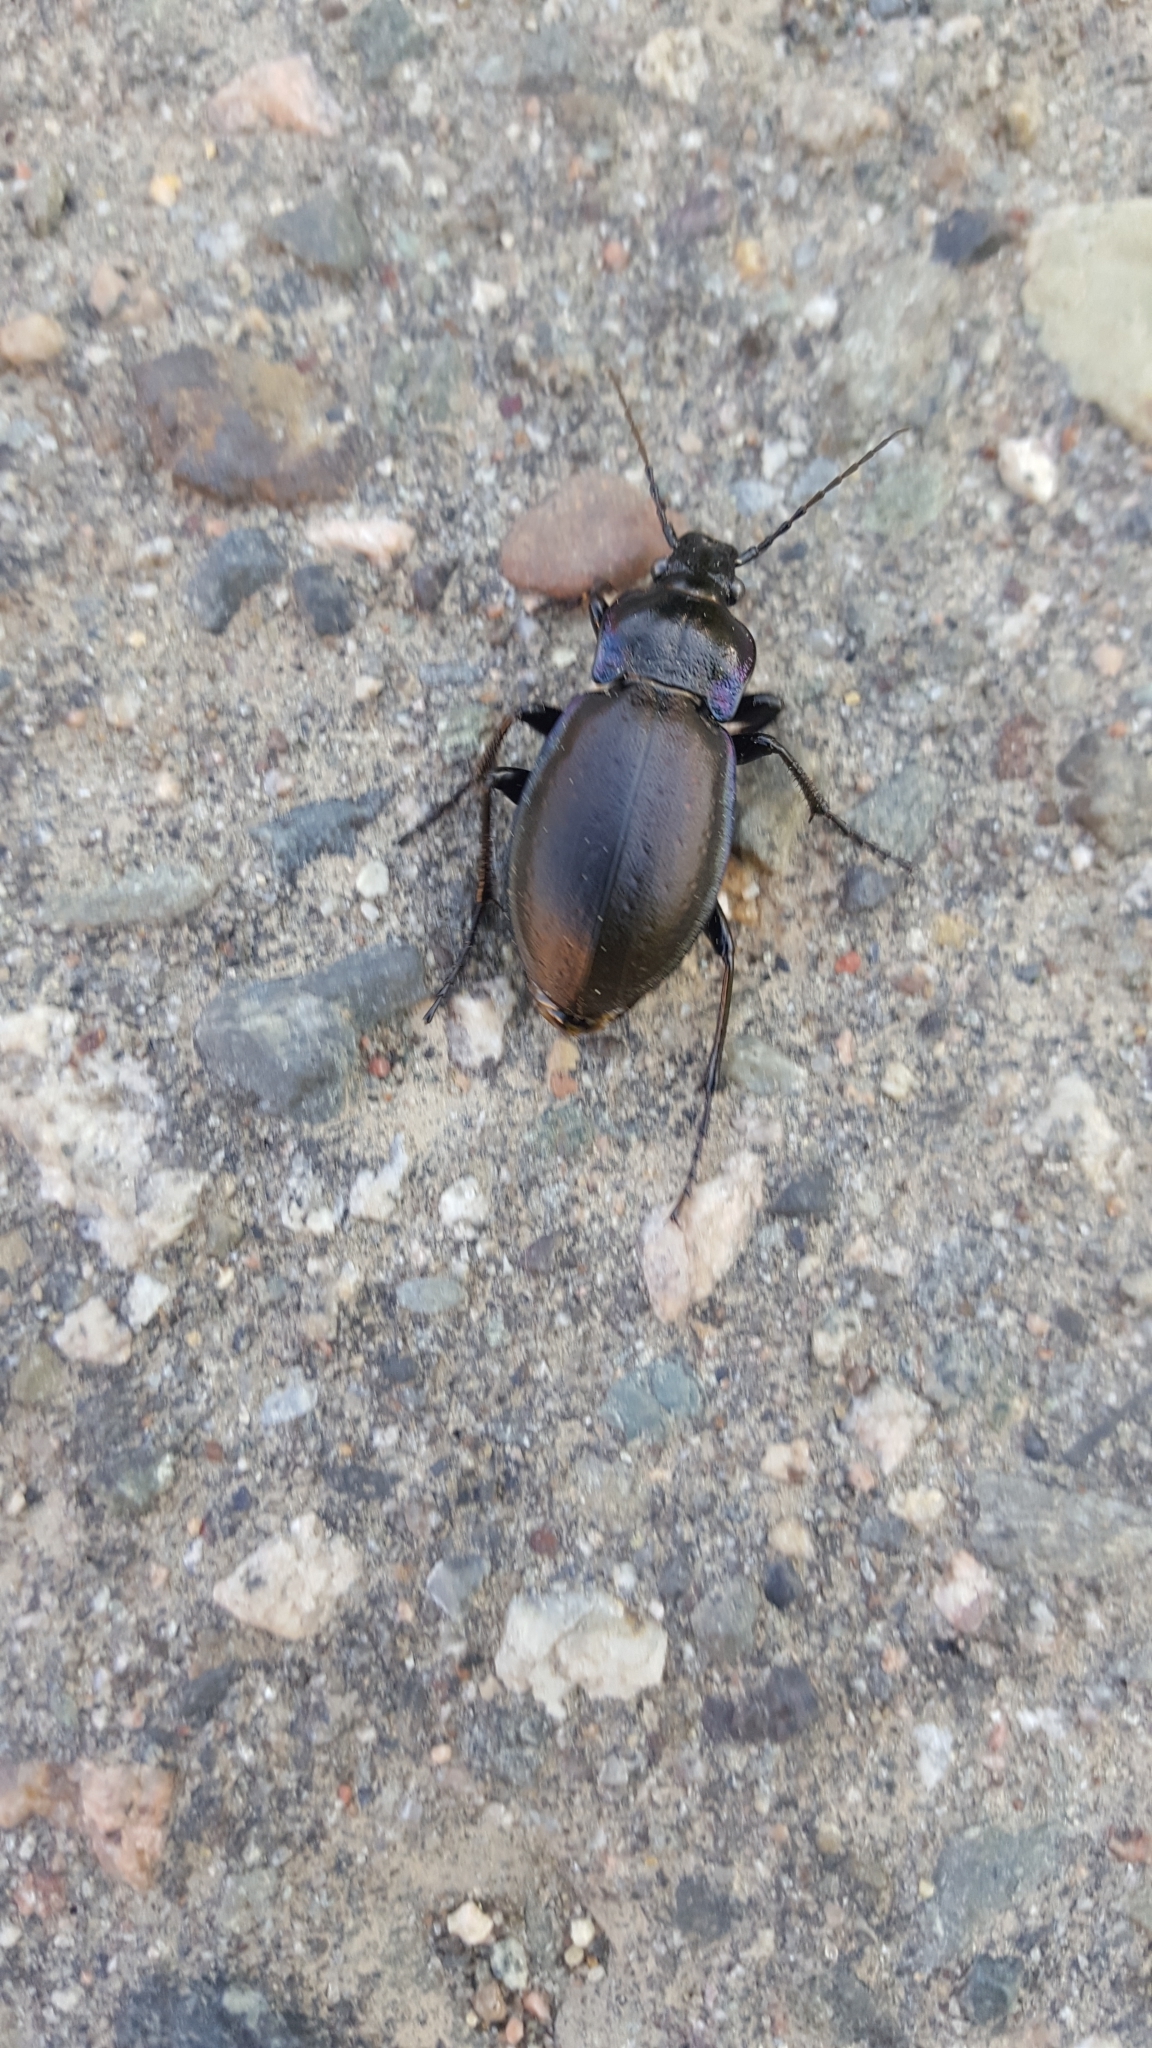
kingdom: Animalia
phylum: Arthropoda
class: Insecta
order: Coleoptera
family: Carabidae
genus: Carabus
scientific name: Carabus nemoralis
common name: European ground beetle
